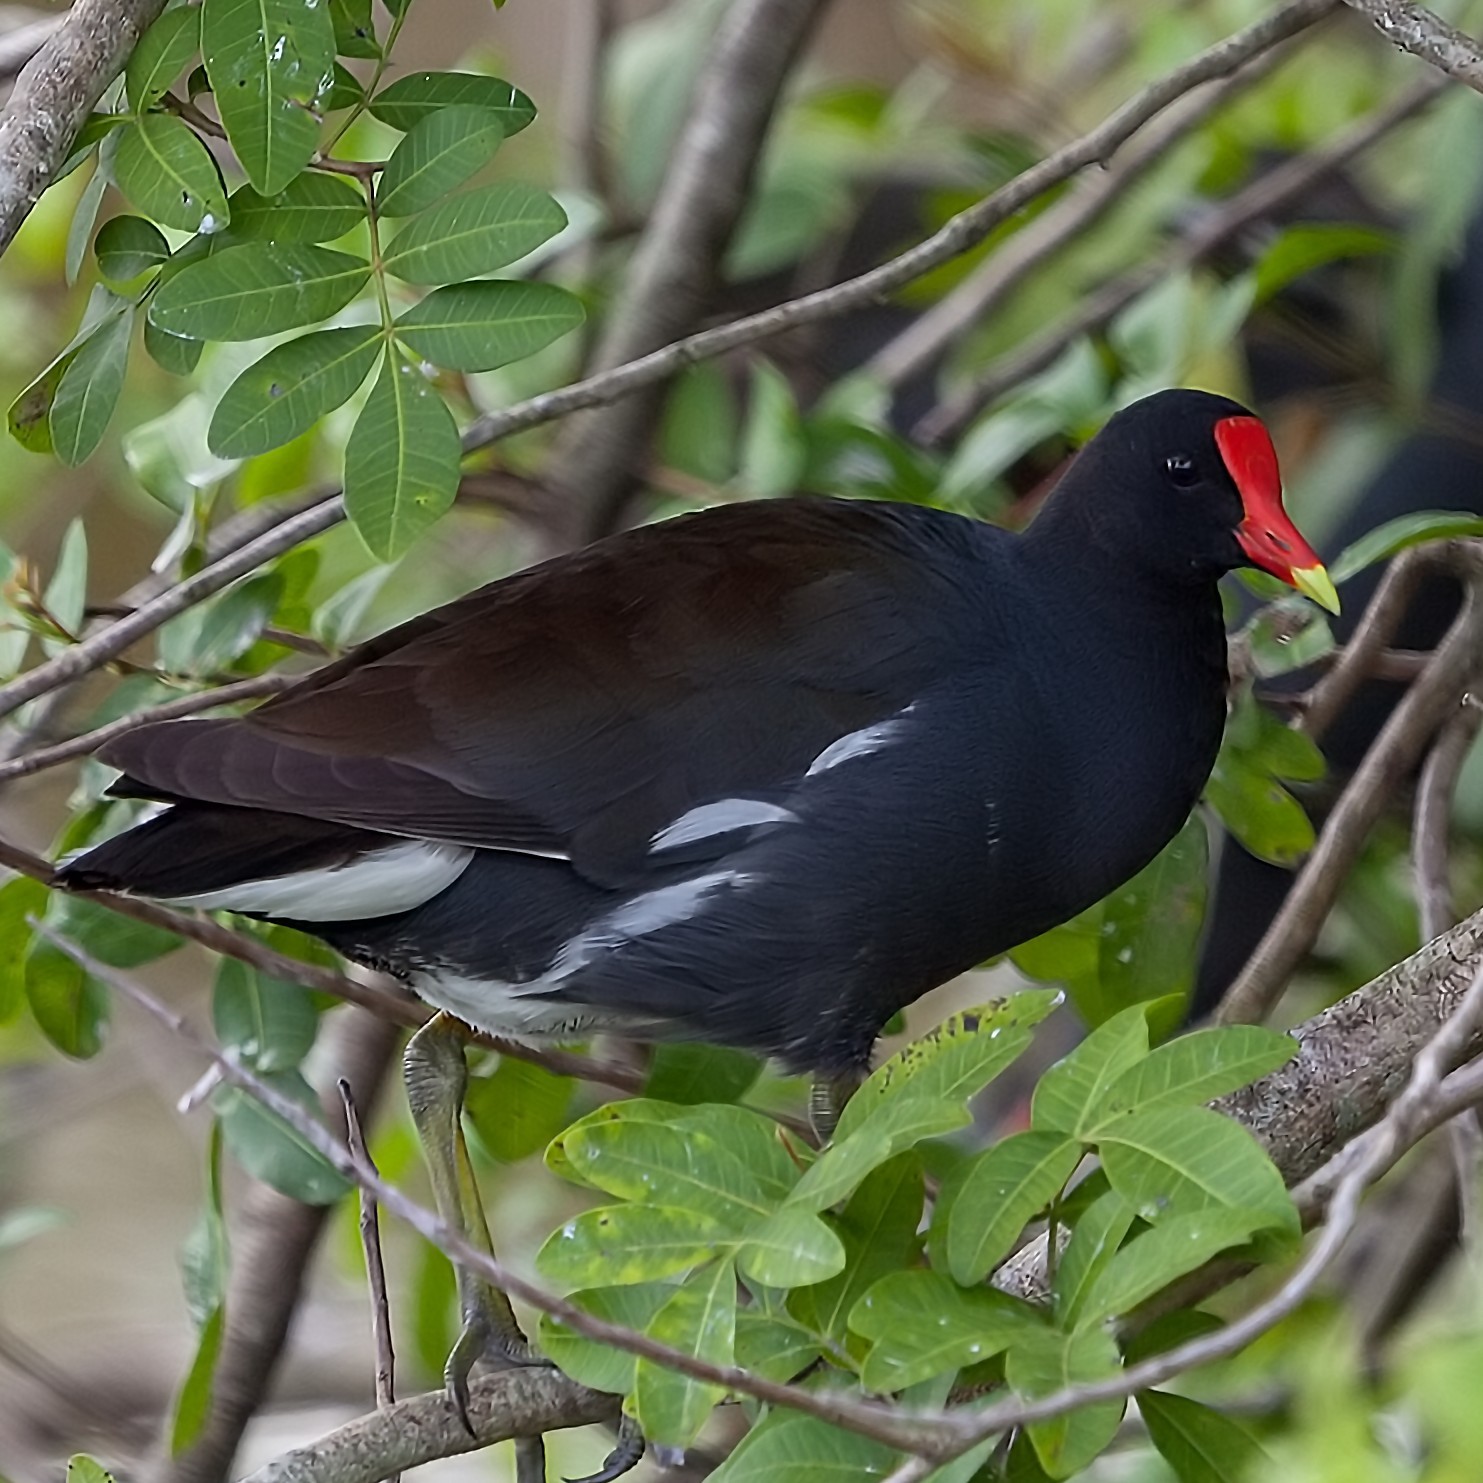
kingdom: Animalia
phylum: Chordata
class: Aves
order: Gruiformes
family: Rallidae
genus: Gallinula
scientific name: Gallinula chloropus
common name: Common moorhen
